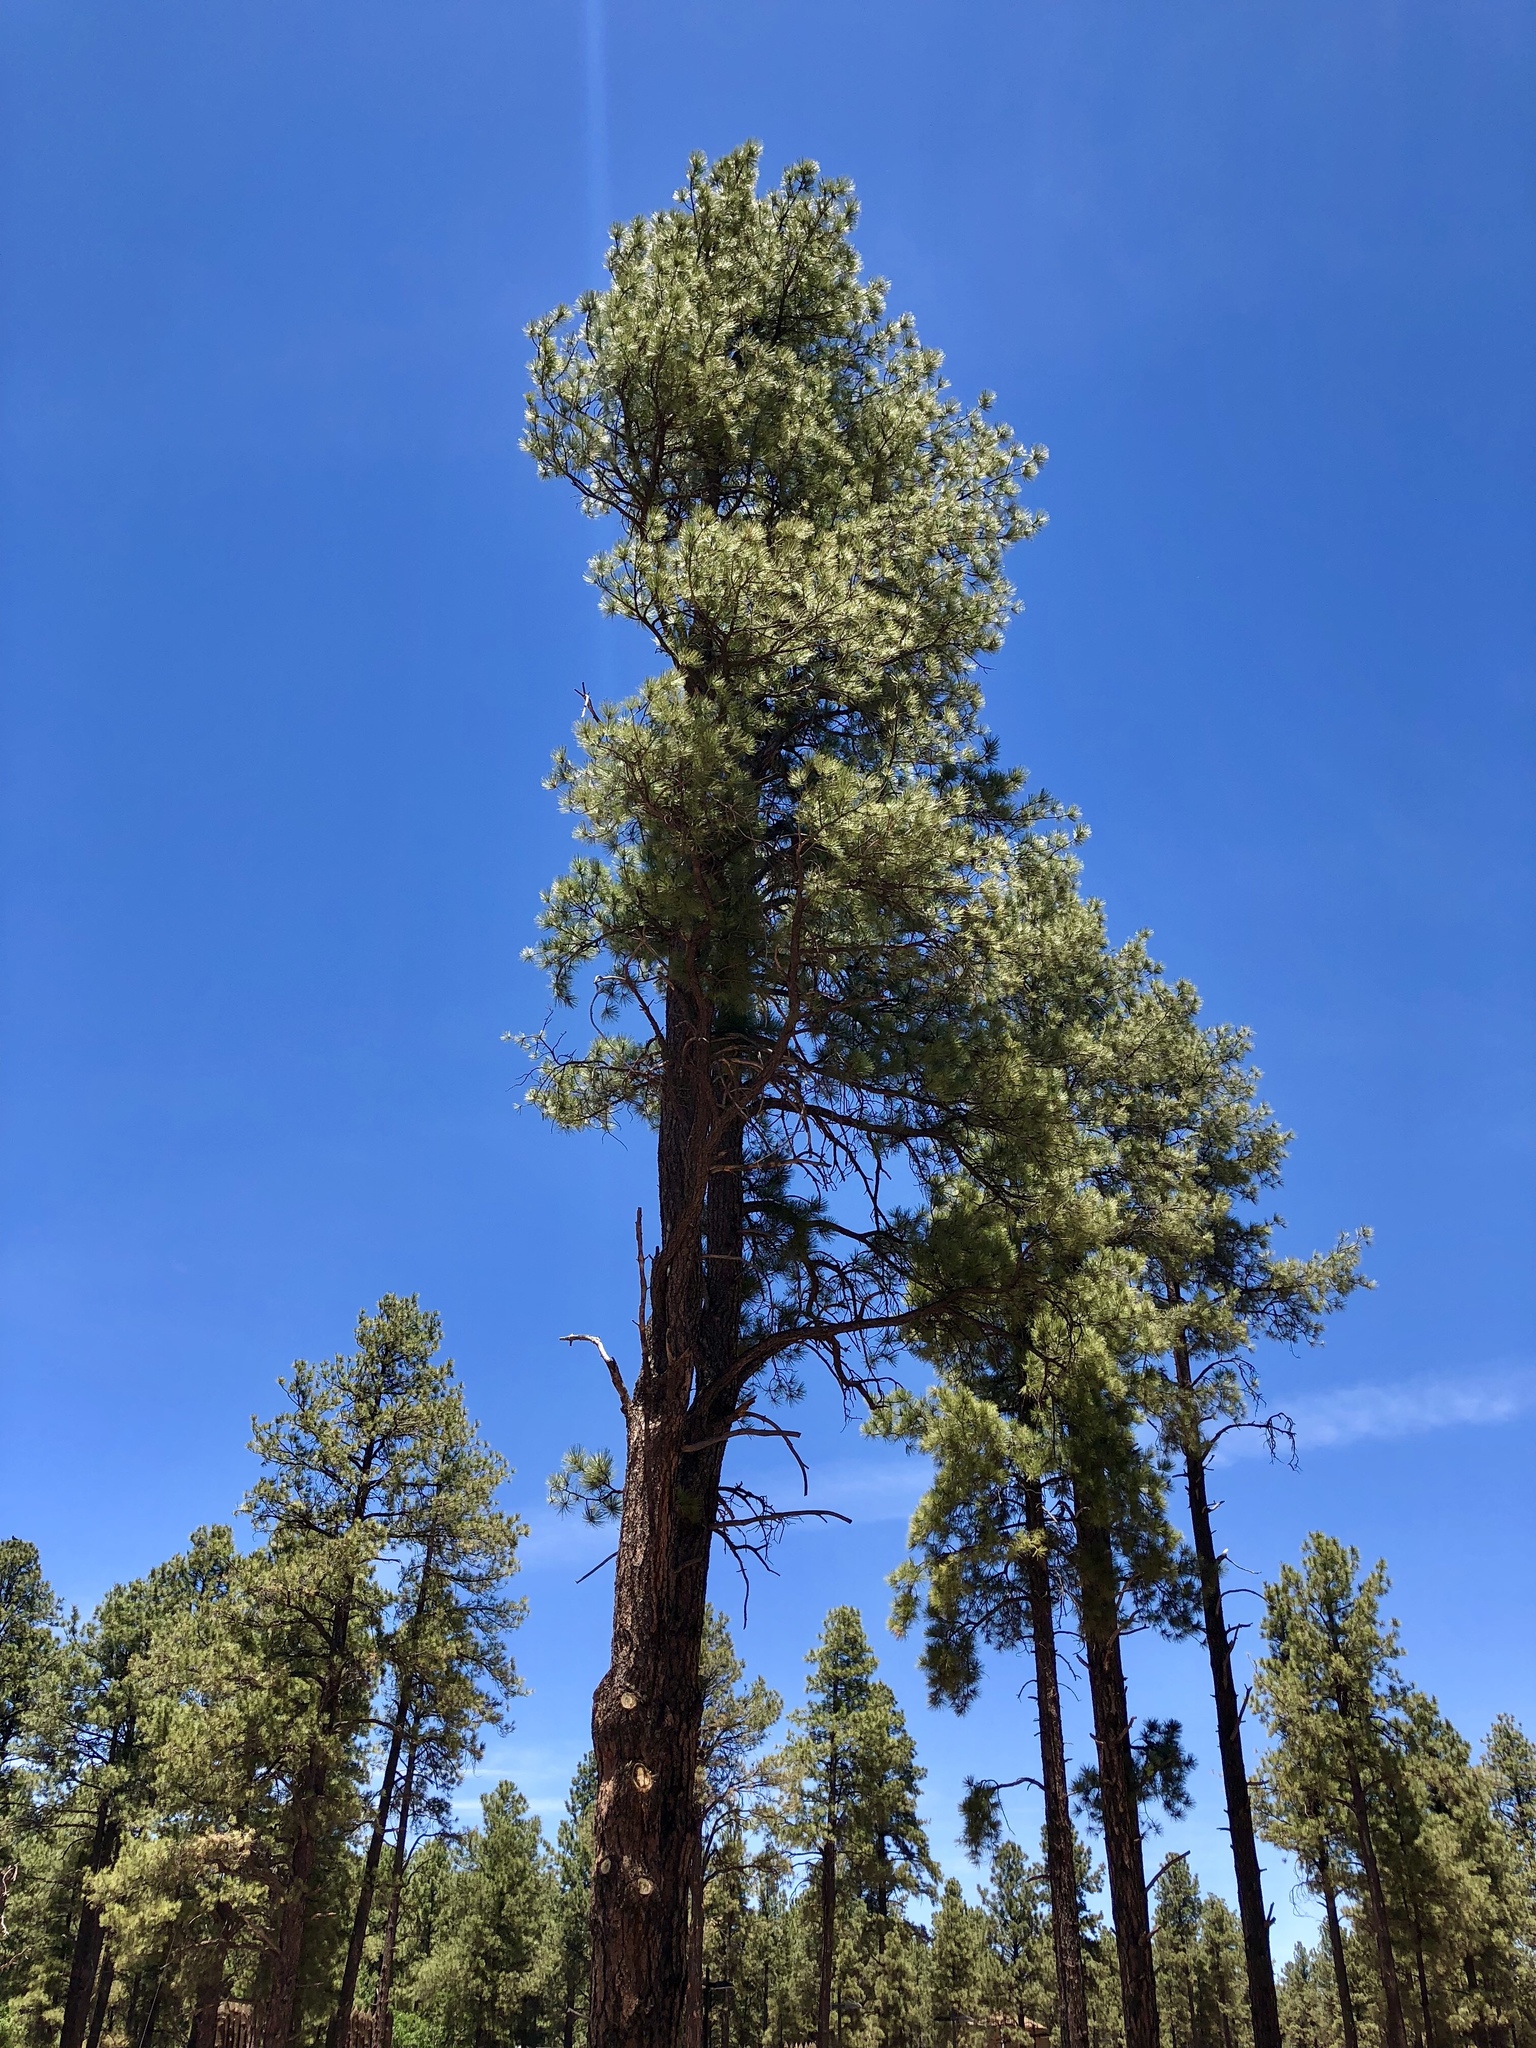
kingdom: Plantae
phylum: Tracheophyta
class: Pinopsida
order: Pinales
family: Pinaceae
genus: Pinus
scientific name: Pinus ponderosa
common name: Western yellow-pine
